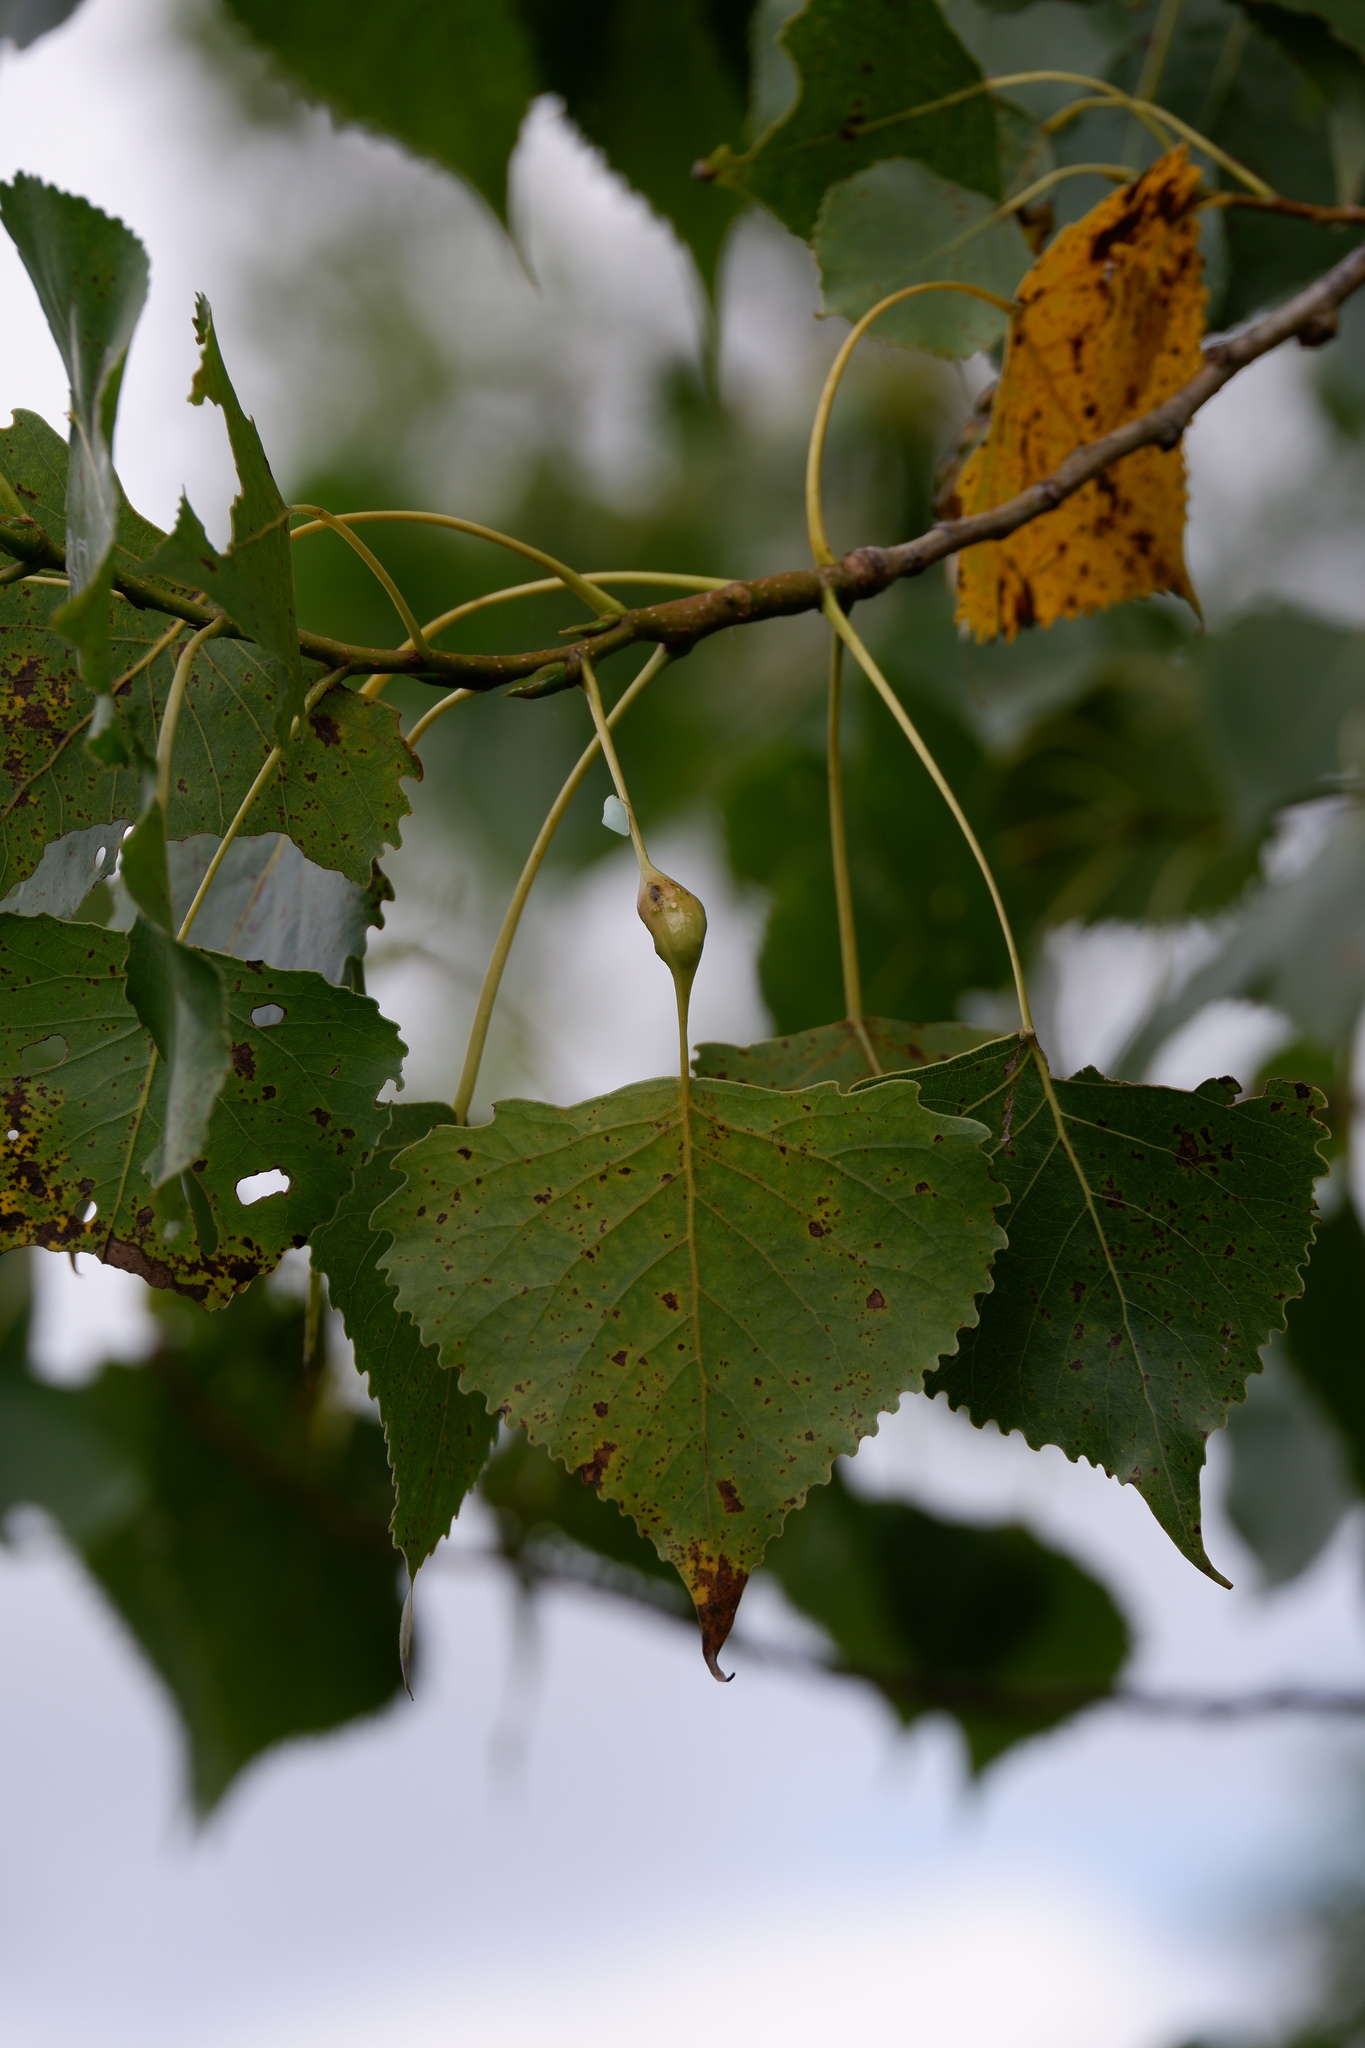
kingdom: Animalia
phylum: Arthropoda
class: Insecta
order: Hemiptera
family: Aphididae
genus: Pemphigus
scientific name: Pemphigus populitransversus
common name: Poplar petiolegall aphid
